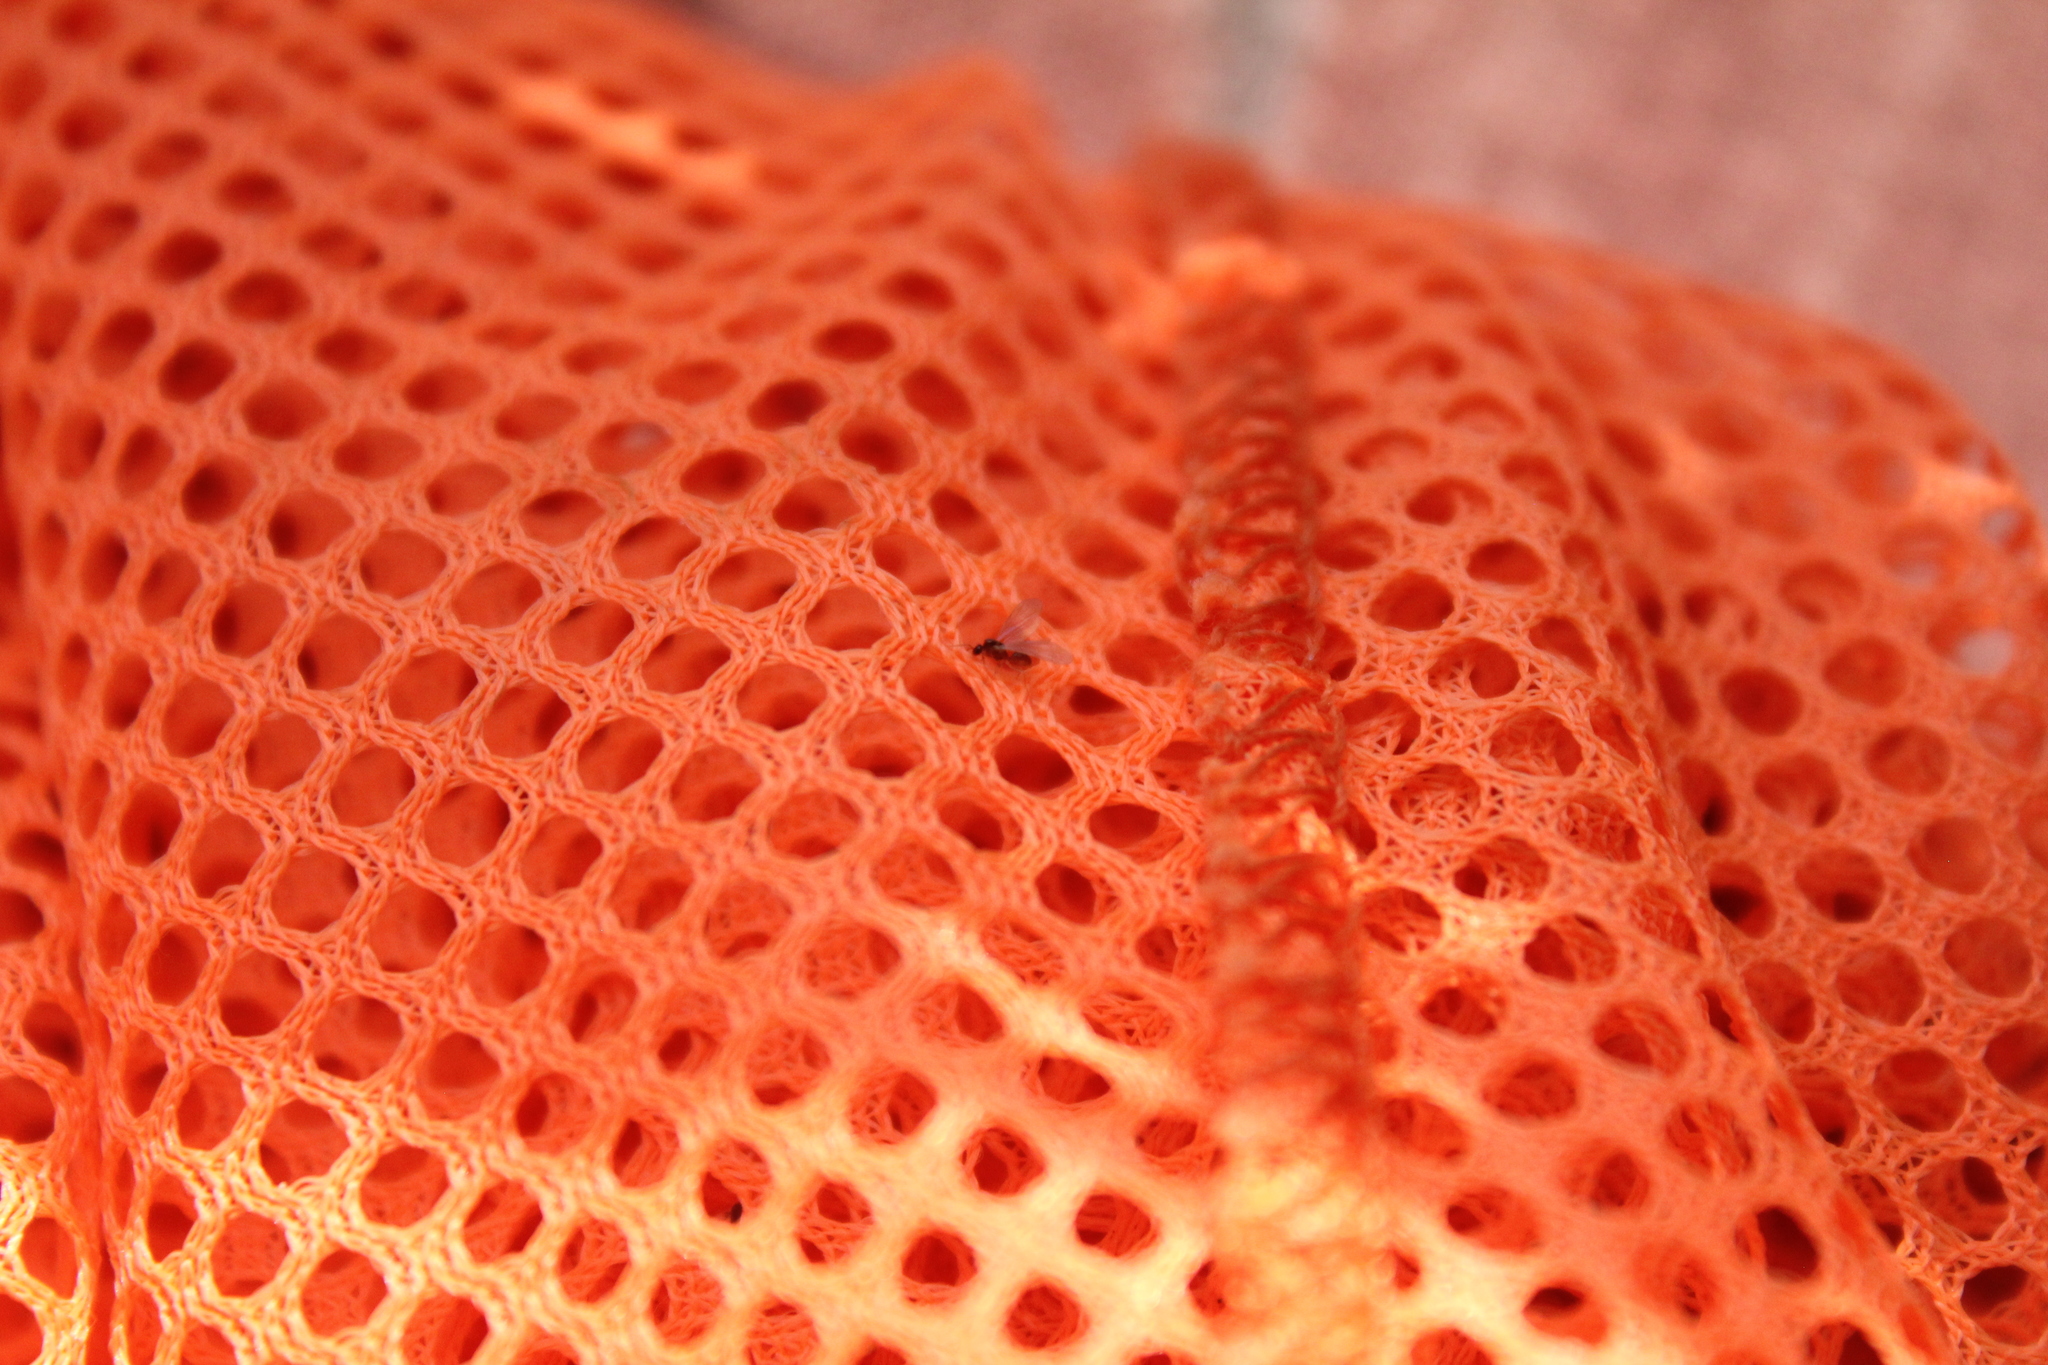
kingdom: Animalia
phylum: Arthropoda
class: Insecta
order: Hymenoptera
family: Formicidae
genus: Brachymyrmex
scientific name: Brachymyrmex depilis
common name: Hairless rover ant
